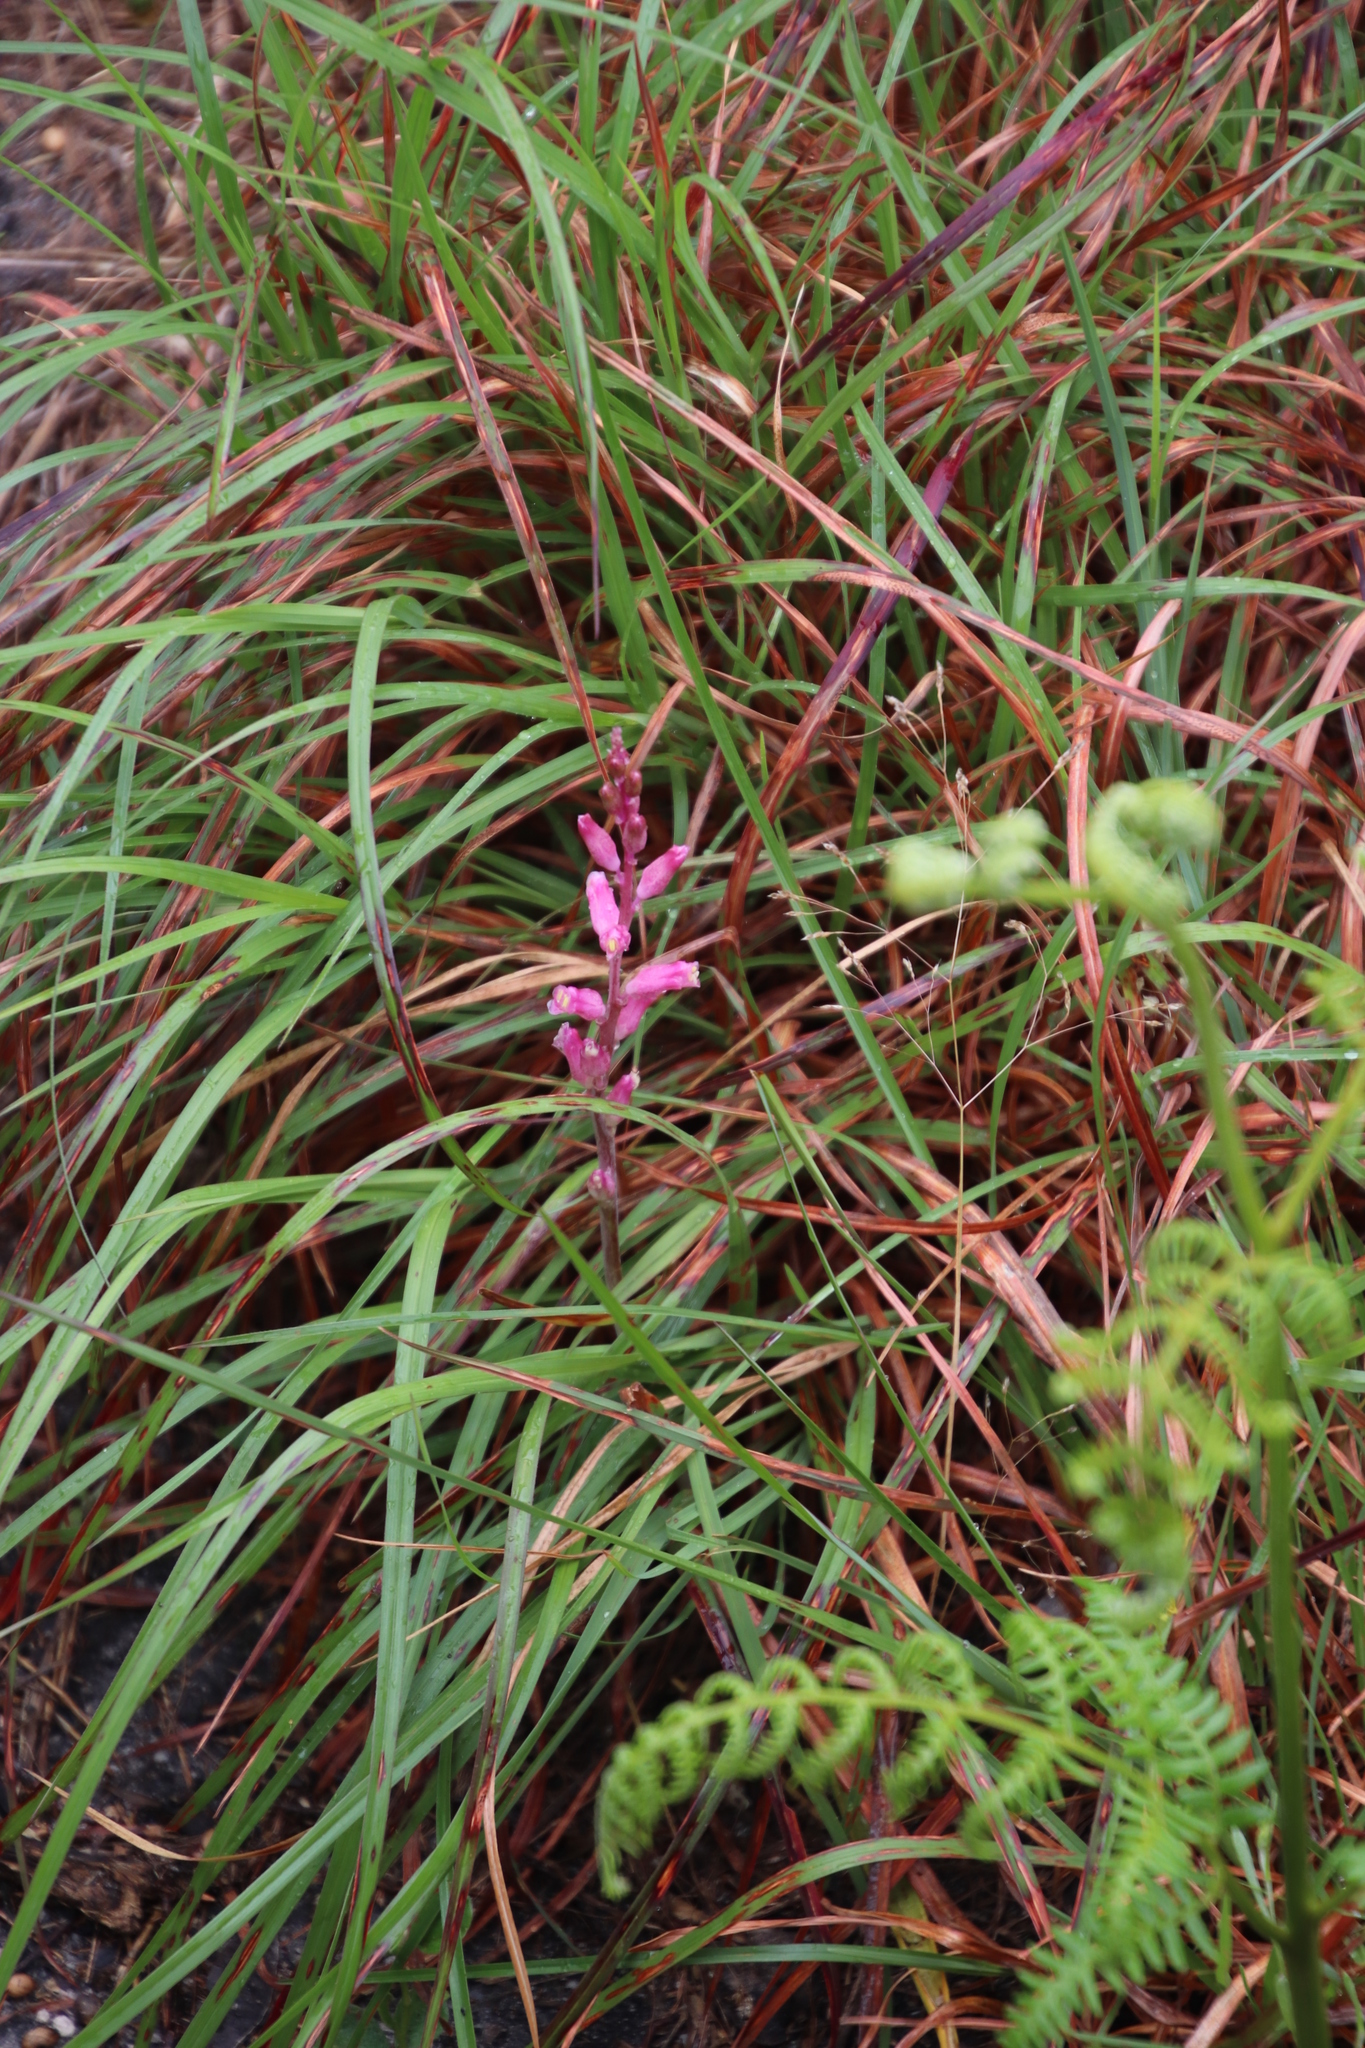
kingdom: Plantae
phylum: Tracheophyta
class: Liliopsida
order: Asparagales
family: Asparagaceae
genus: Lachenalia
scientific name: Lachenalia rosea
